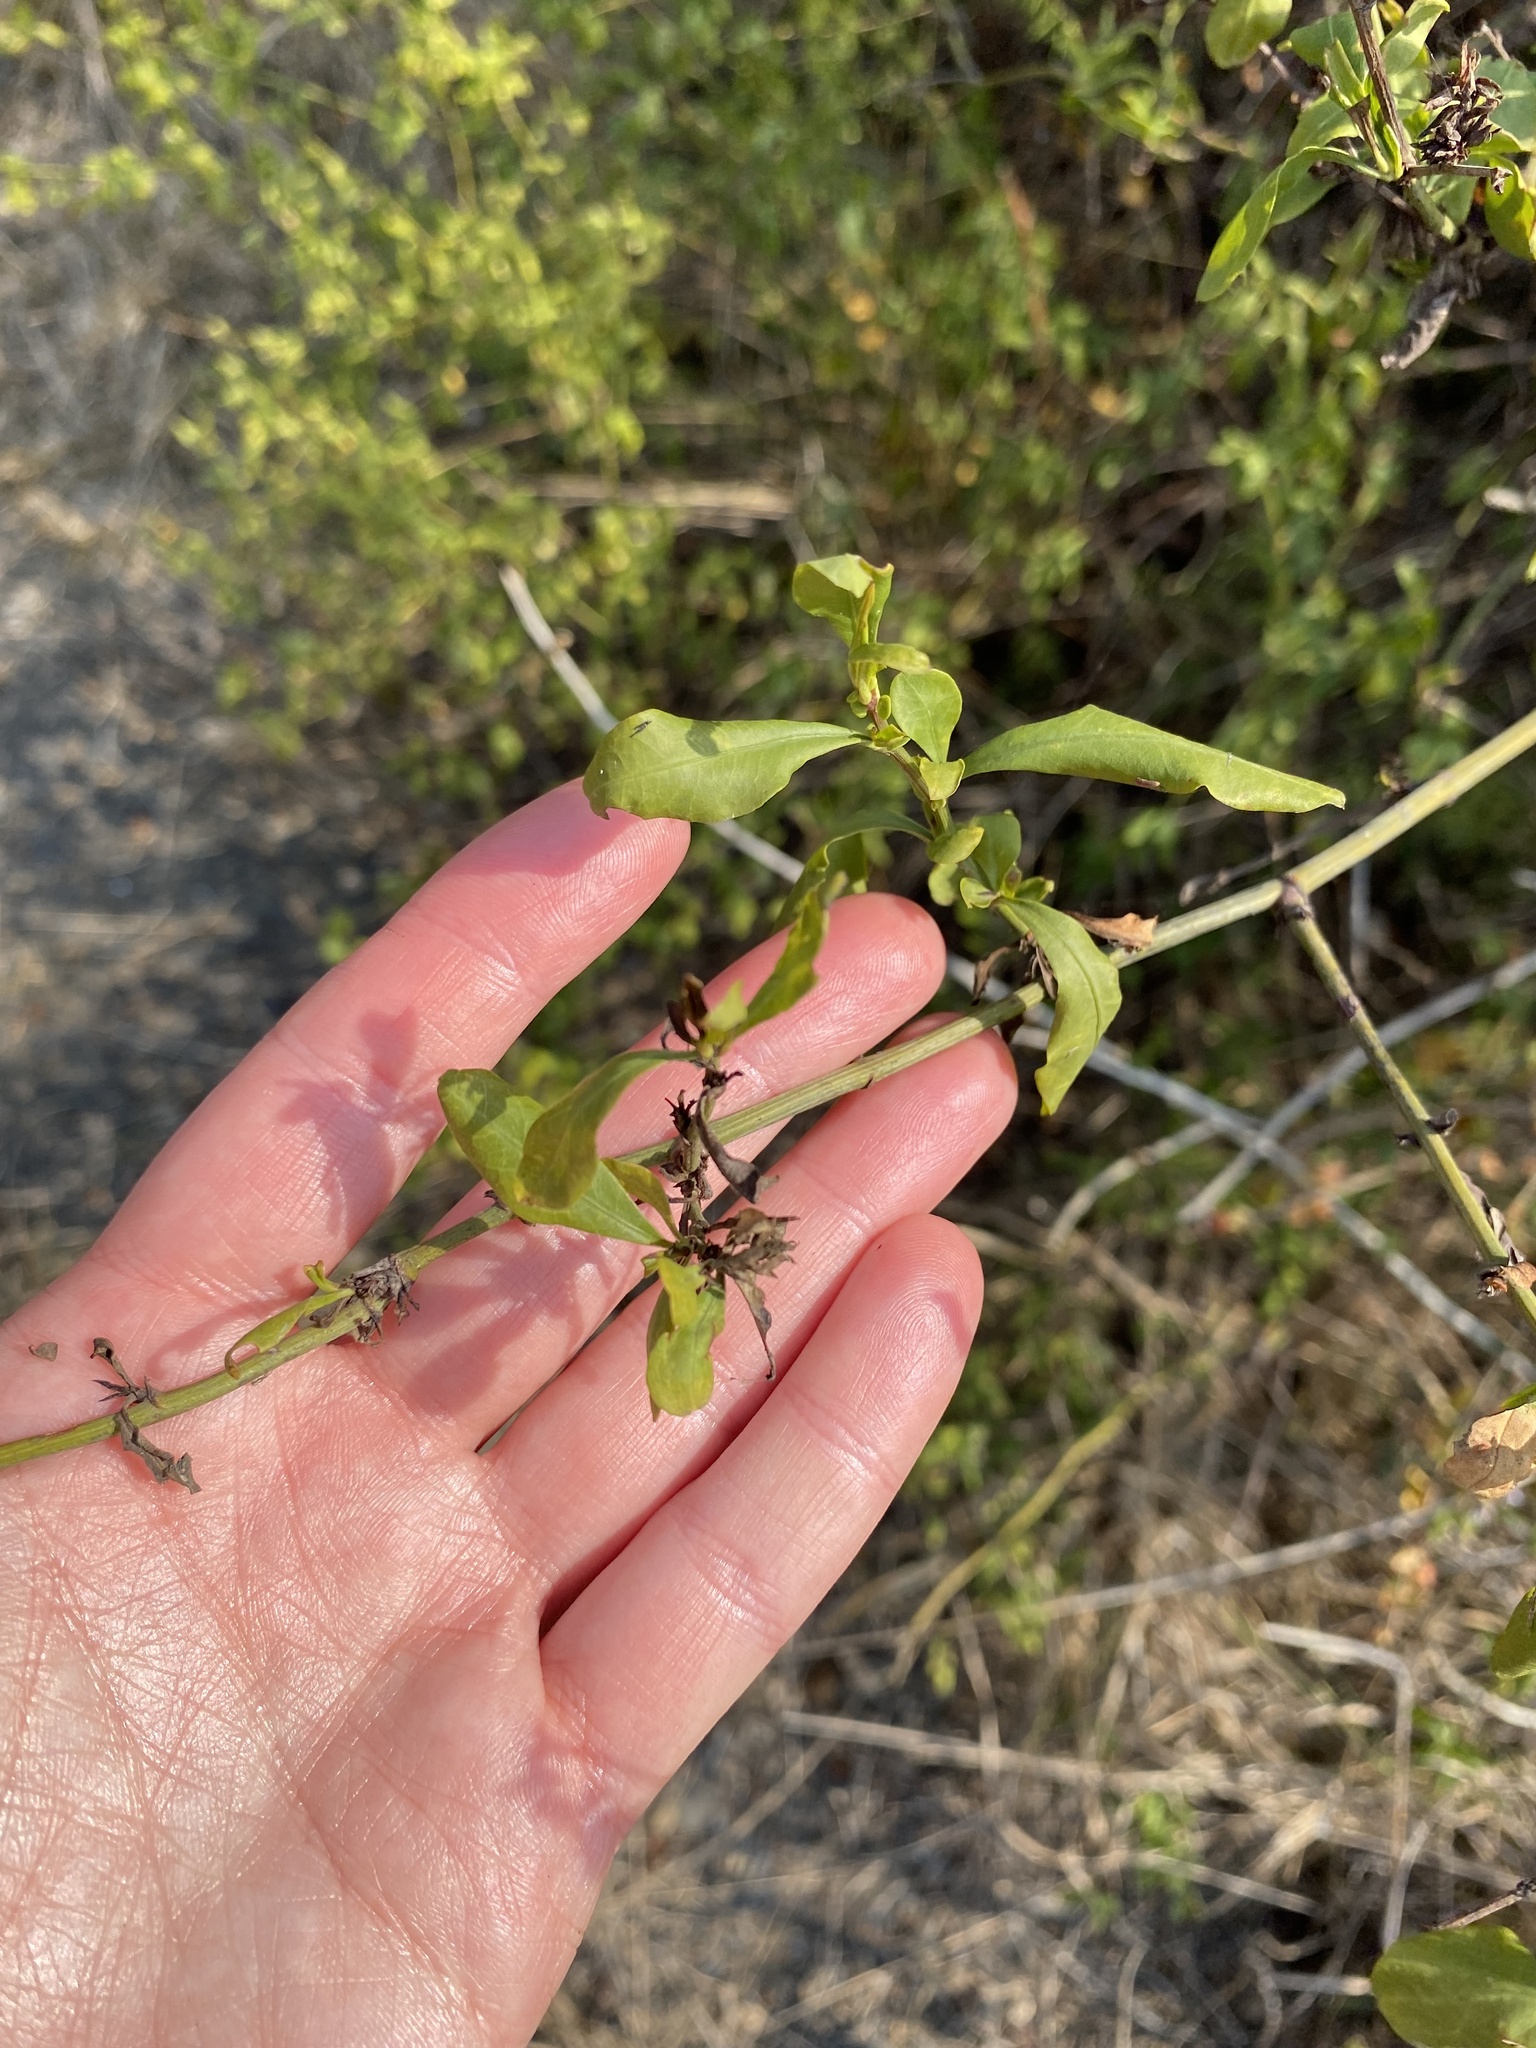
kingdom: Plantae
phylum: Tracheophyta
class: Magnoliopsida
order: Caryophyllales
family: Plumbaginaceae
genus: Plumbago
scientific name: Plumbago auriculata
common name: Cape leadwort
